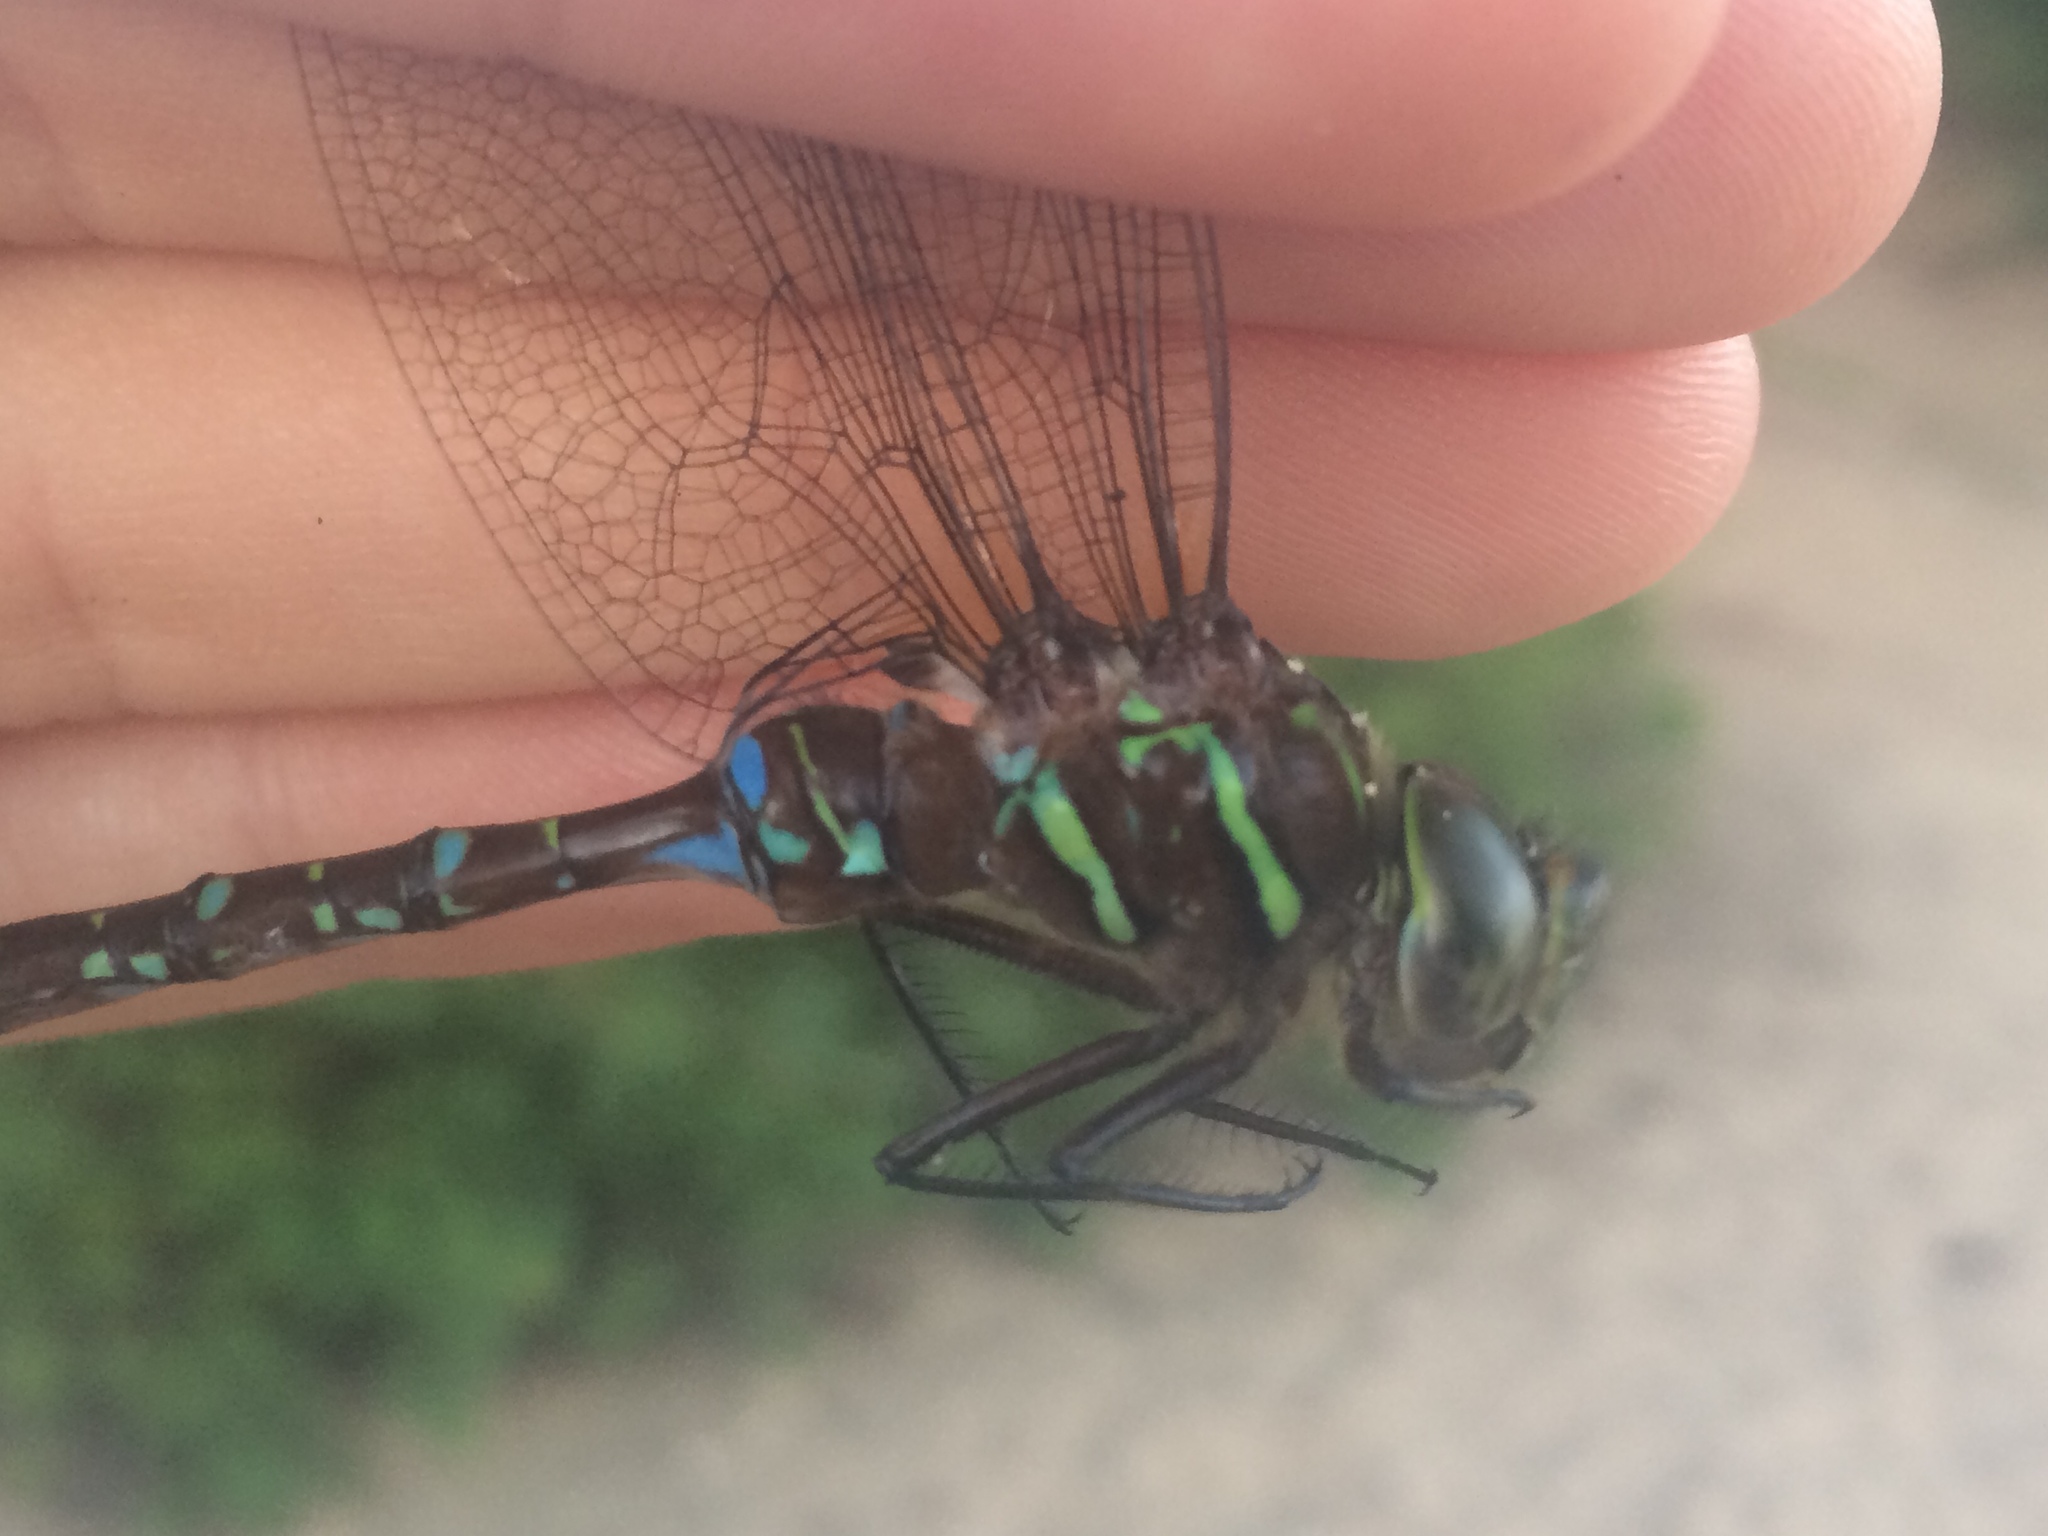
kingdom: Animalia
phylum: Arthropoda
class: Insecta
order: Odonata
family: Aeshnidae
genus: Aeshna
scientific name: Aeshna umbrosa
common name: Shadow darner
